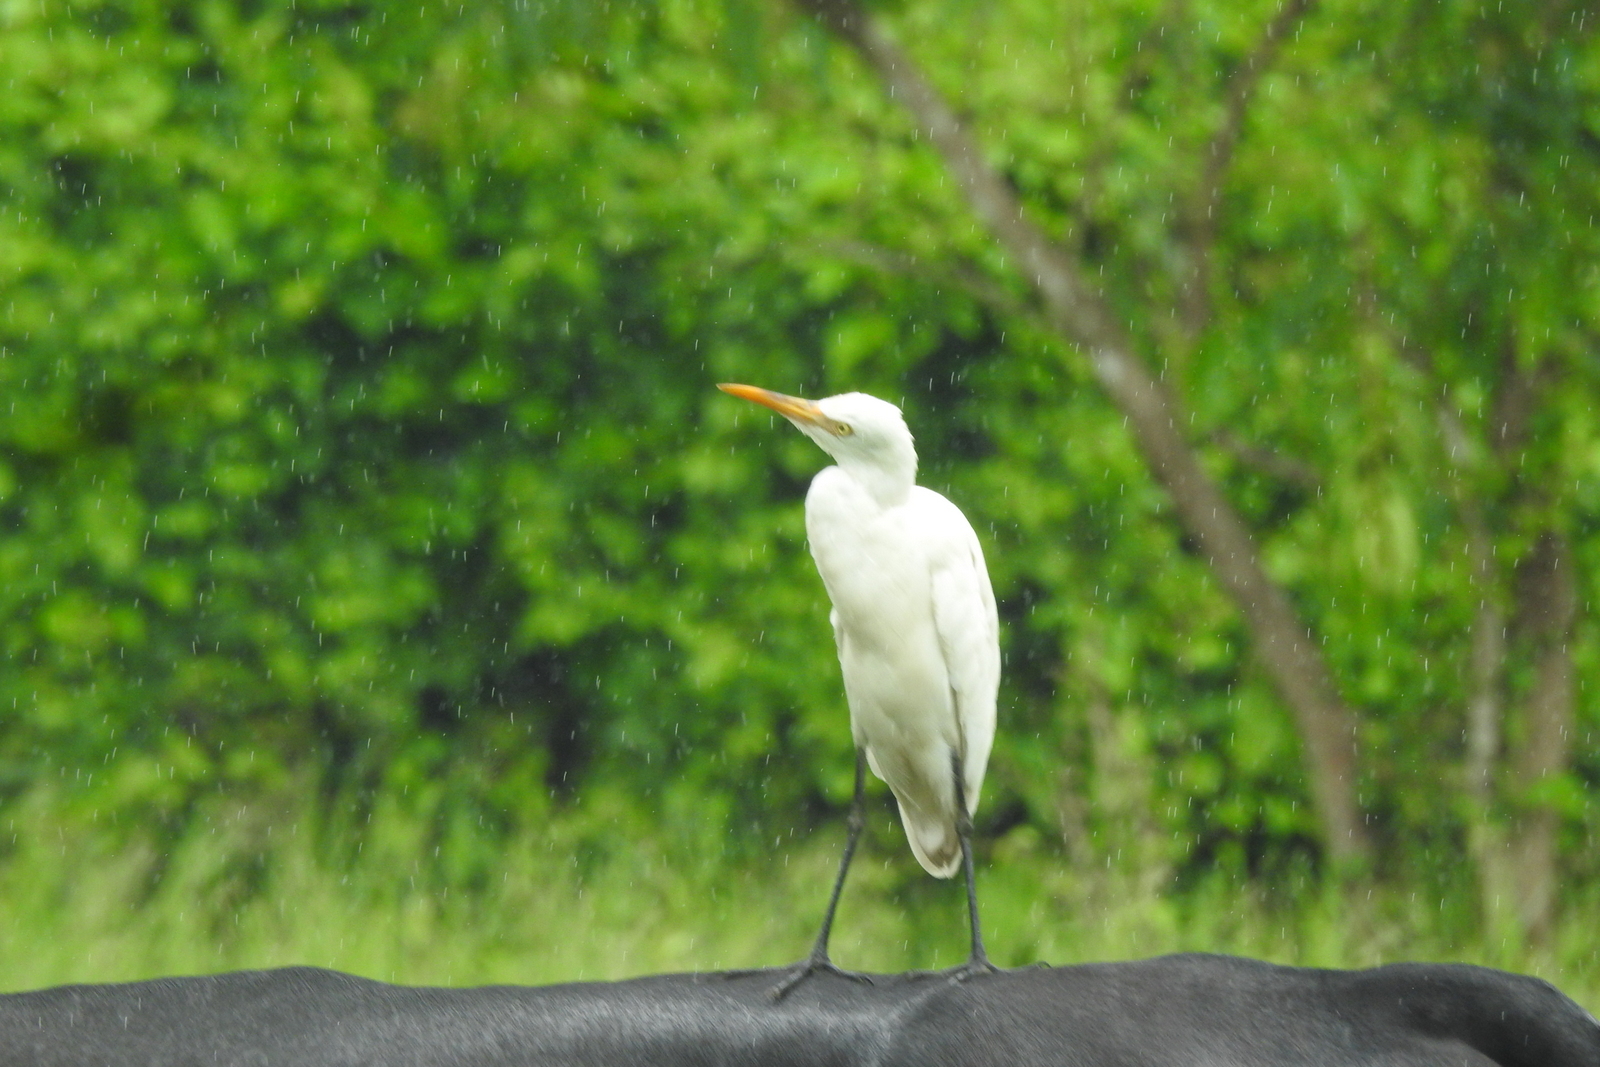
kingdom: Animalia
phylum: Chordata
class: Aves
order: Pelecaniformes
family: Ardeidae
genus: Bubulcus
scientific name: Bubulcus coromandus
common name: Eastern cattle egret
